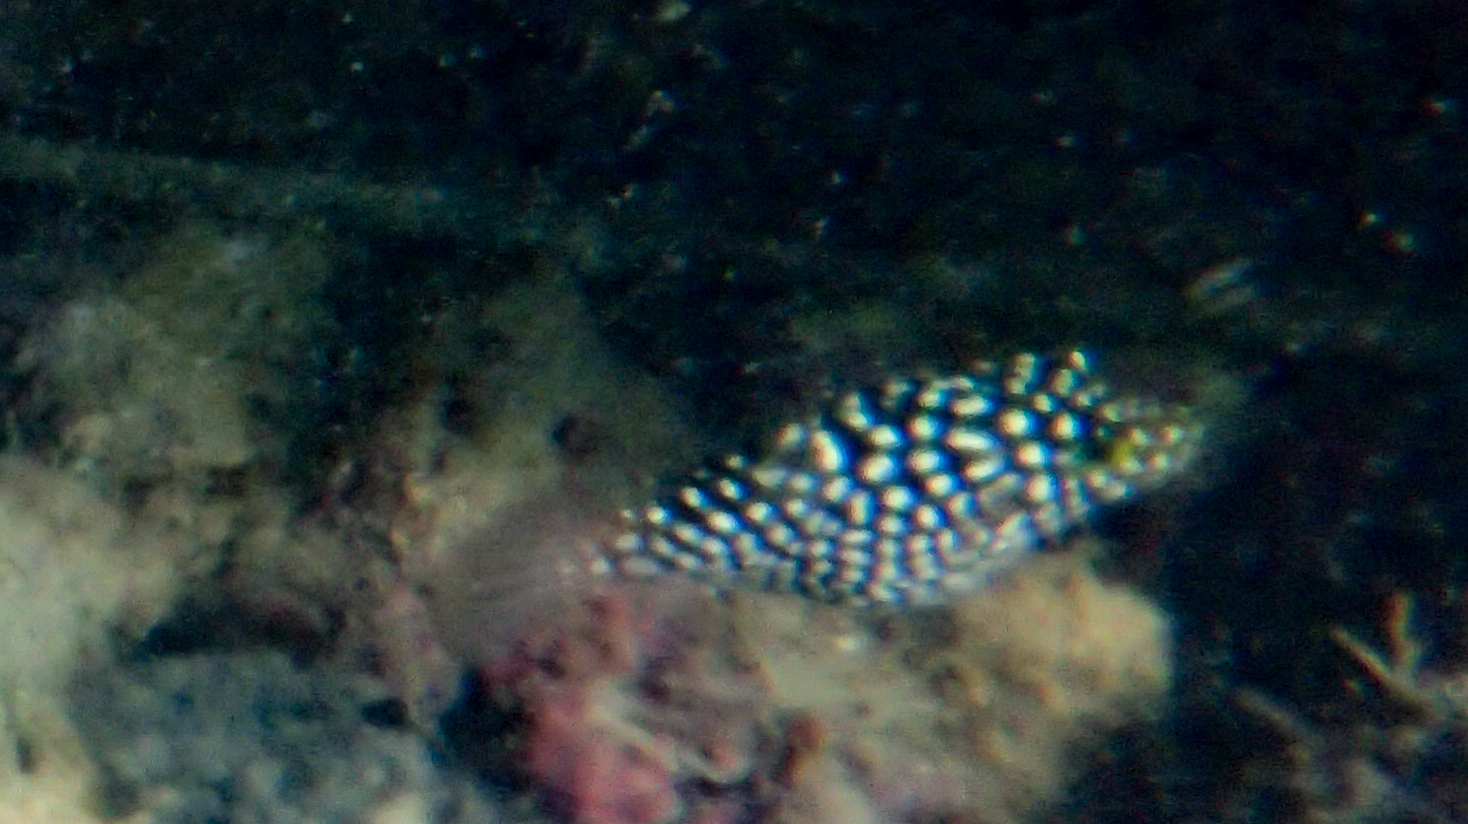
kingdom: Animalia
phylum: Chordata
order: Tetraodontiformes
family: Tetraodontidae
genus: Canthigaster
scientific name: Canthigaster jactator
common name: Hawaiian whitespotted toby
